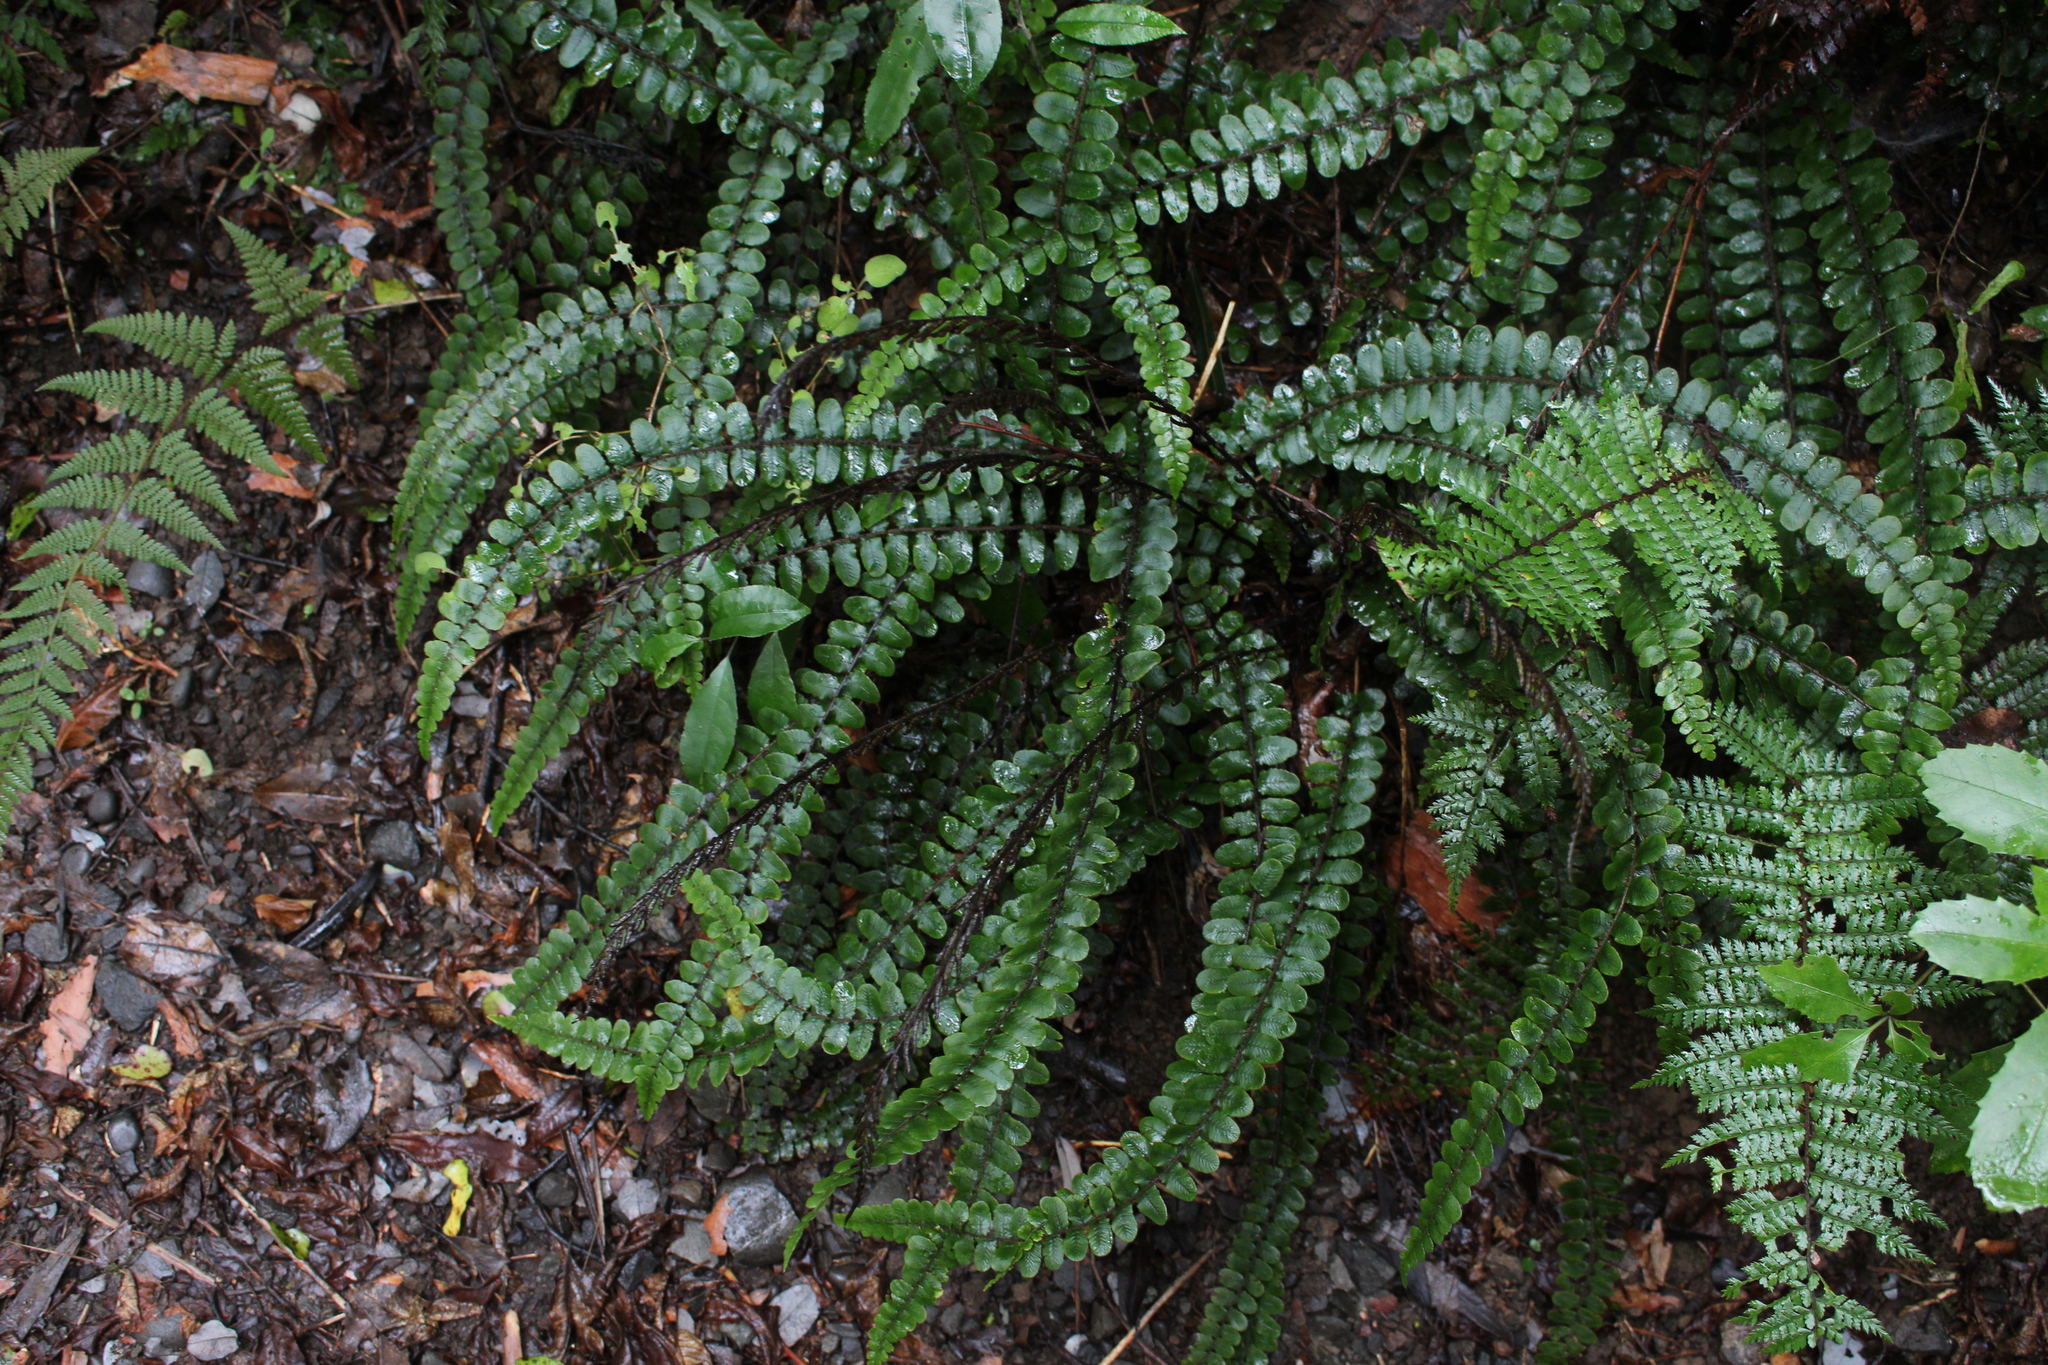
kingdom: Plantae
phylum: Tracheophyta
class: Polypodiopsida
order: Polypodiales
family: Blechnaceae
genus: Cranfillia
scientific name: Cranfillia fluviatilis
